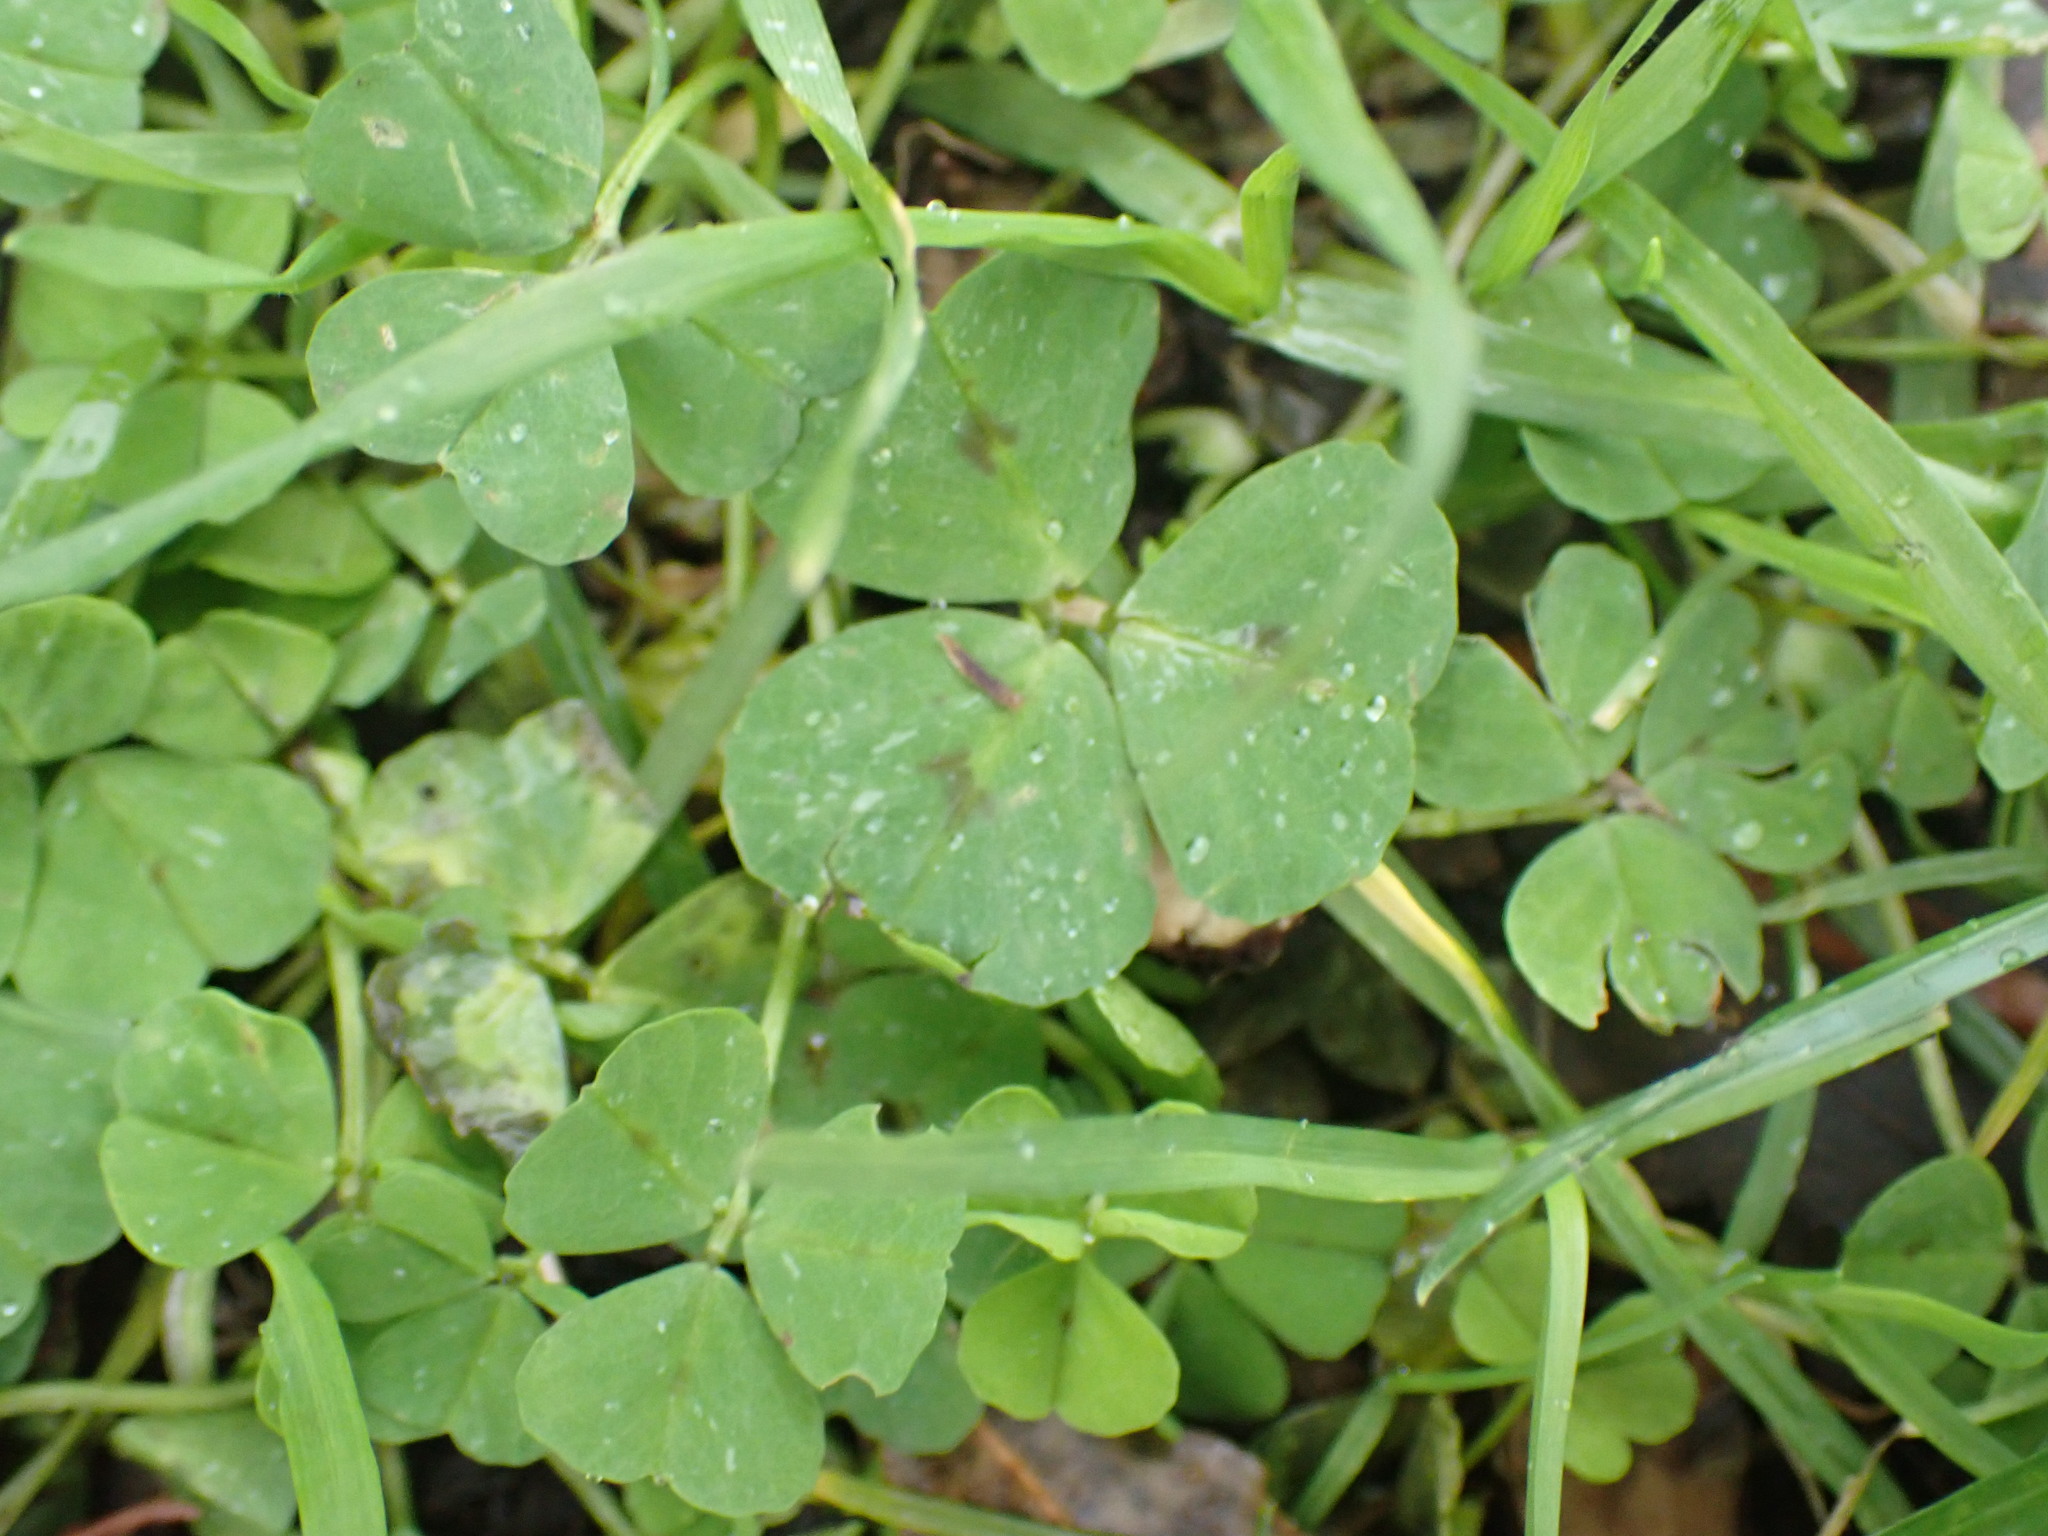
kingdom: Plantae
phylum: Tracheophyta
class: Magnoliopsida
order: Fabales
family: Fabaceae
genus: Medicago
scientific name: Medicago arabica
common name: Spotted medick
